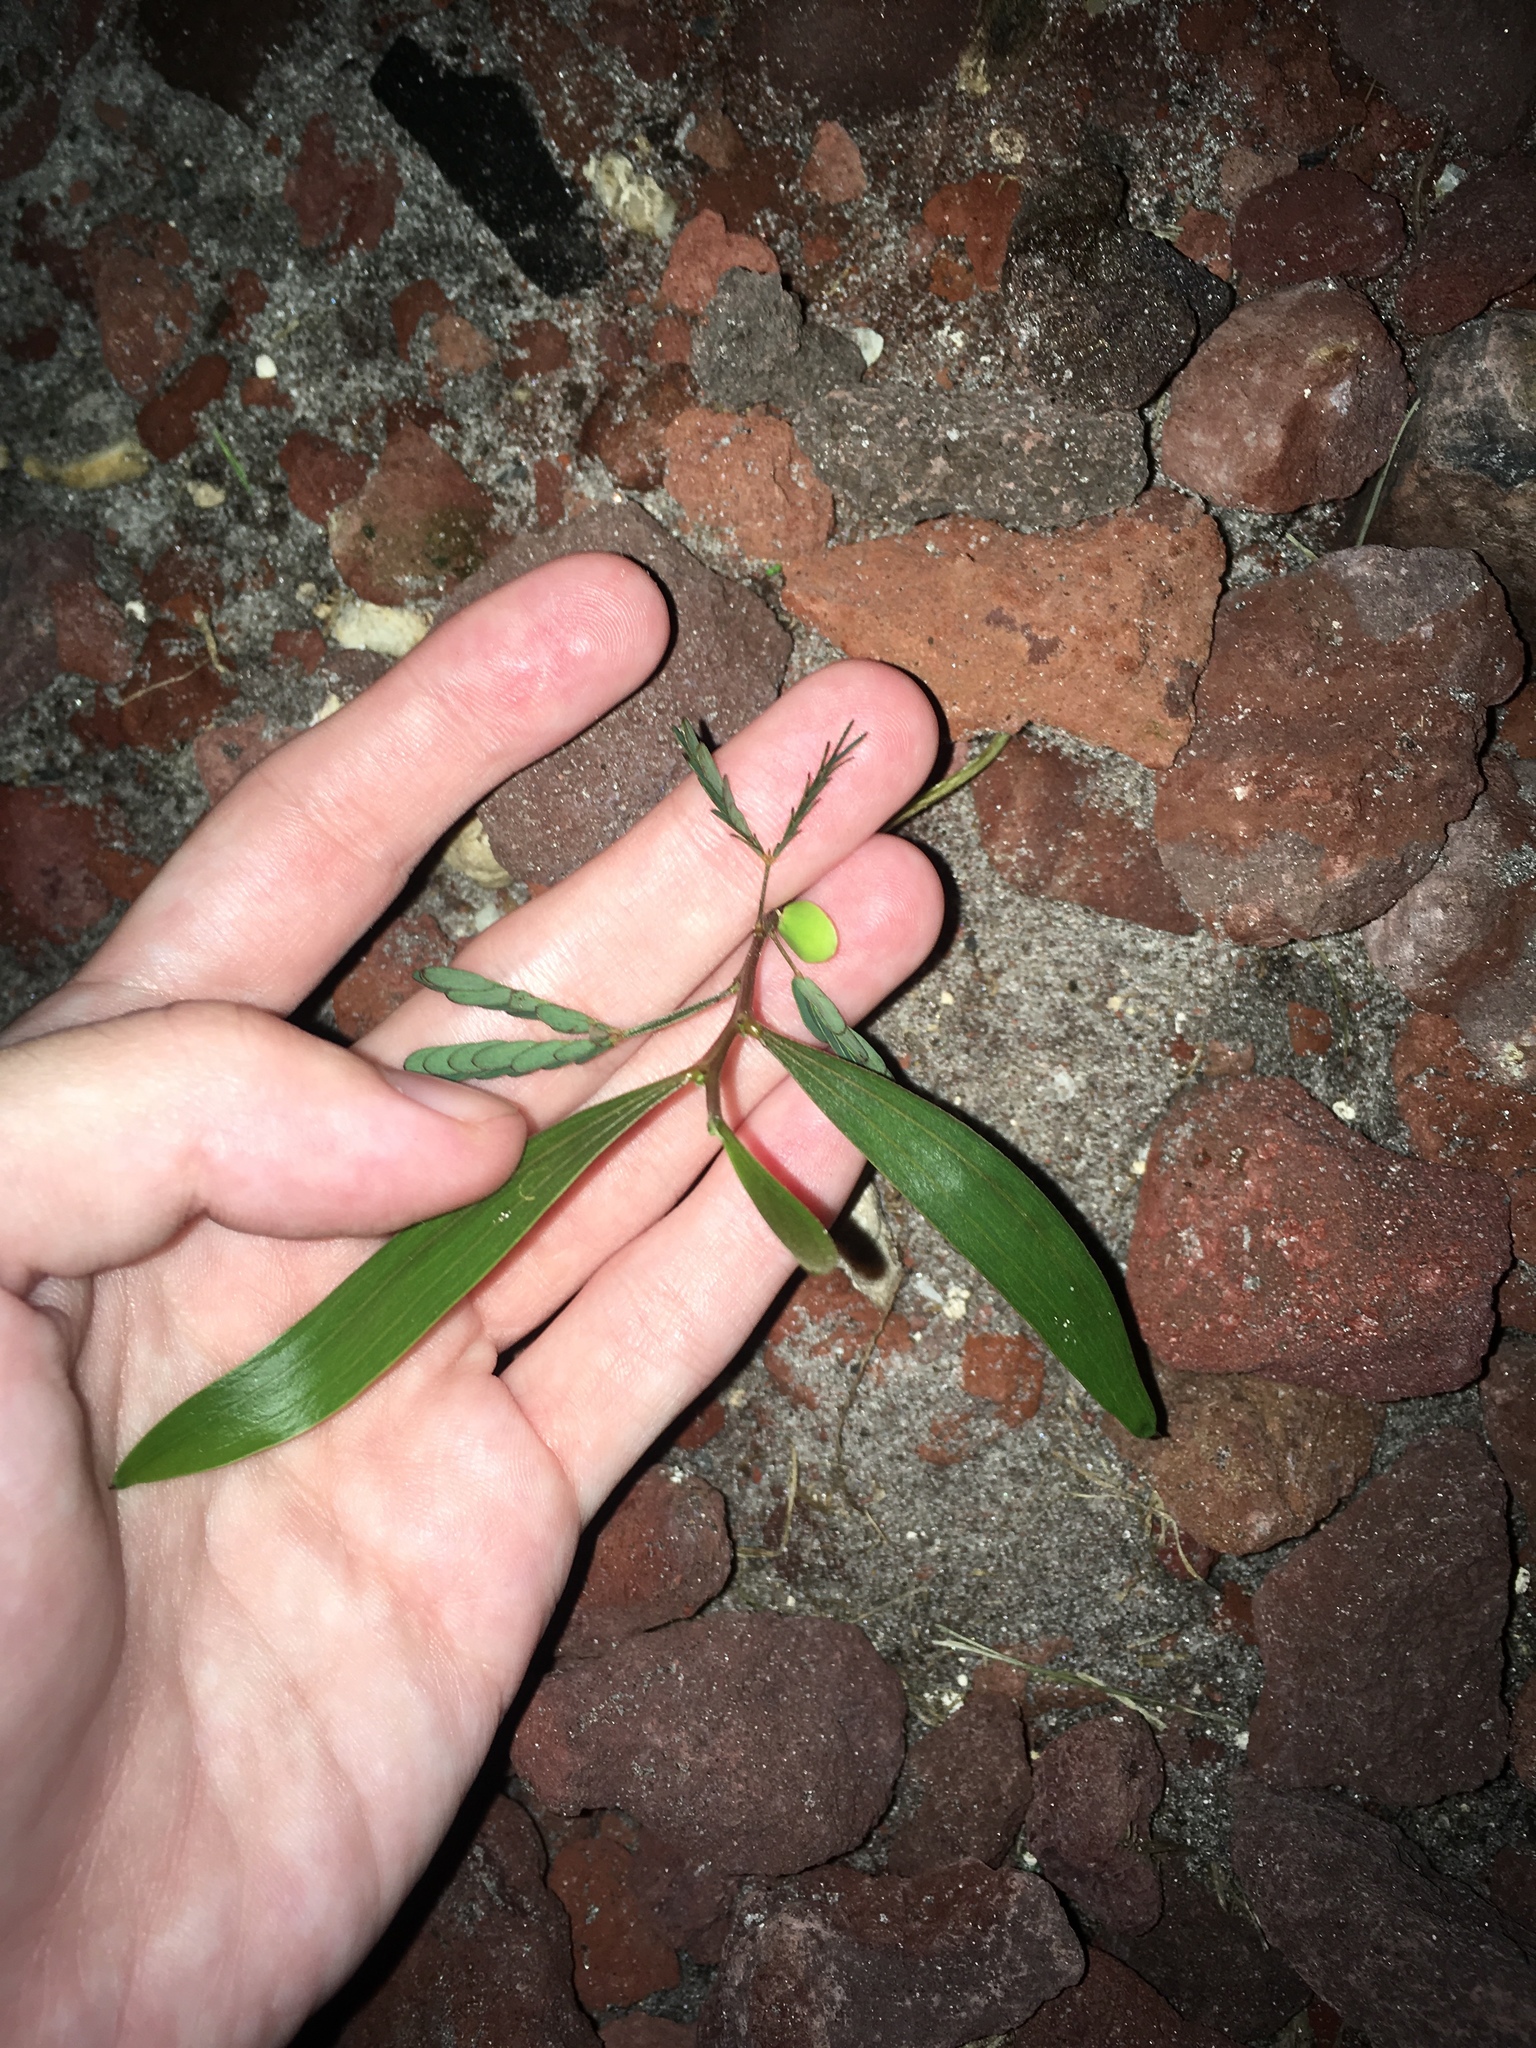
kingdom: Plantae
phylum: Tracheophyta
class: Magnoliopsida
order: Fabales
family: Fabaceae
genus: Acacia
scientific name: Acacia auriculiformis
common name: Earleaf acacia
